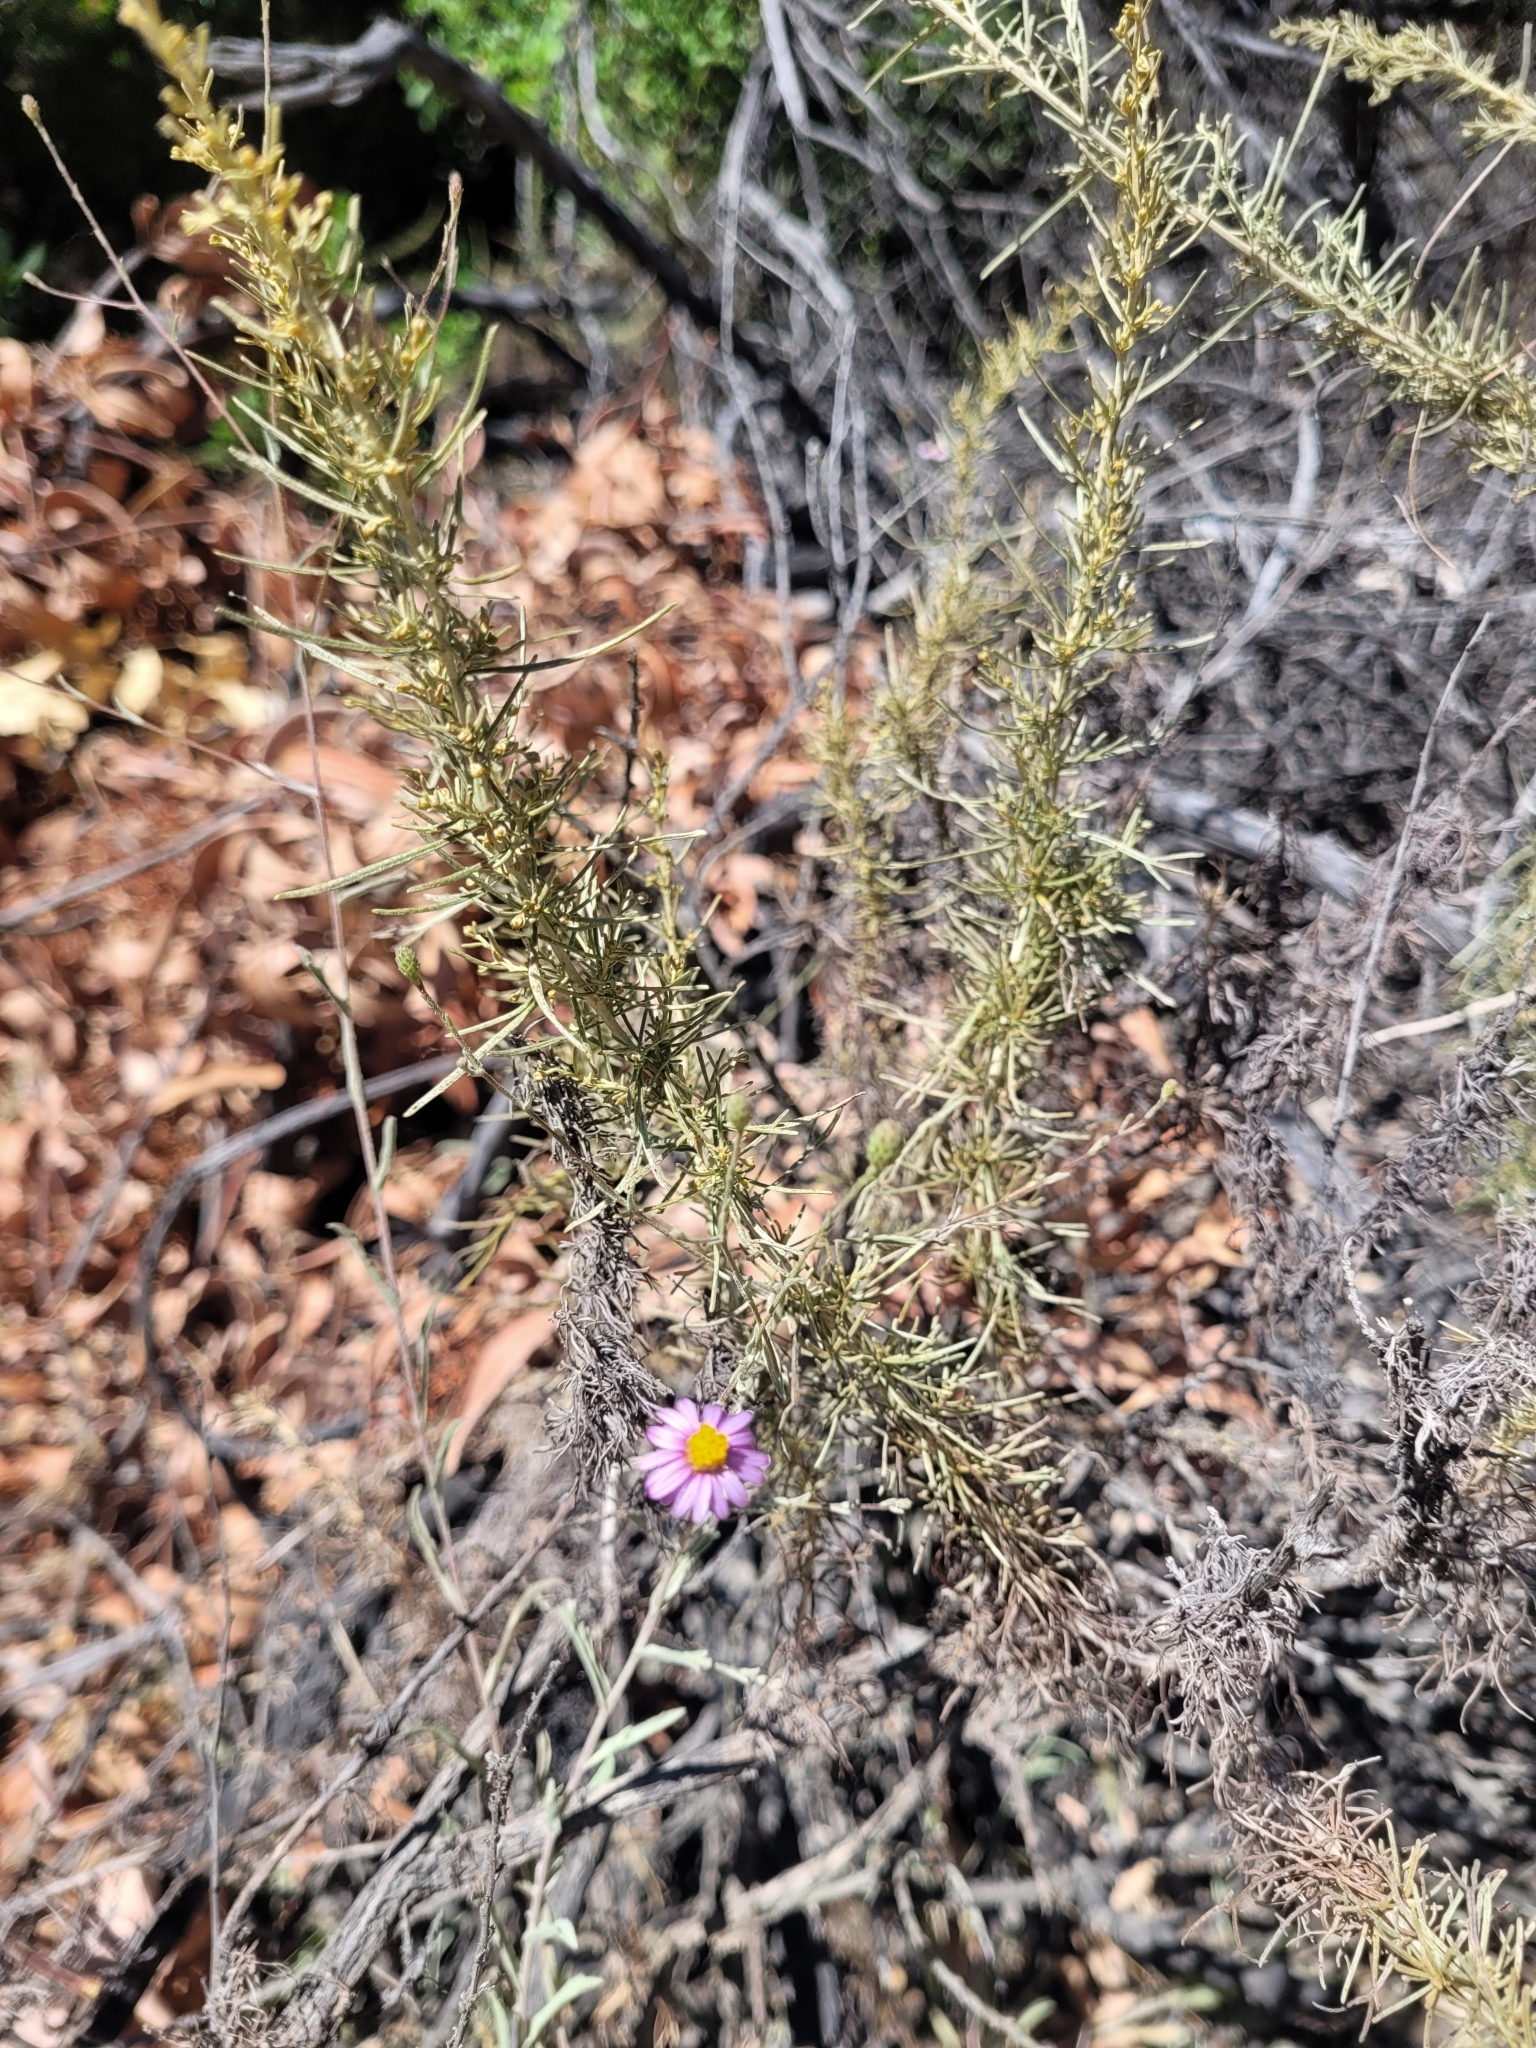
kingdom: Plantae
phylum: Tracheophyta
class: Magnoliopsida
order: Asterales
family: Asteraceae
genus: Erigeron
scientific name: Erigeron foliosus
